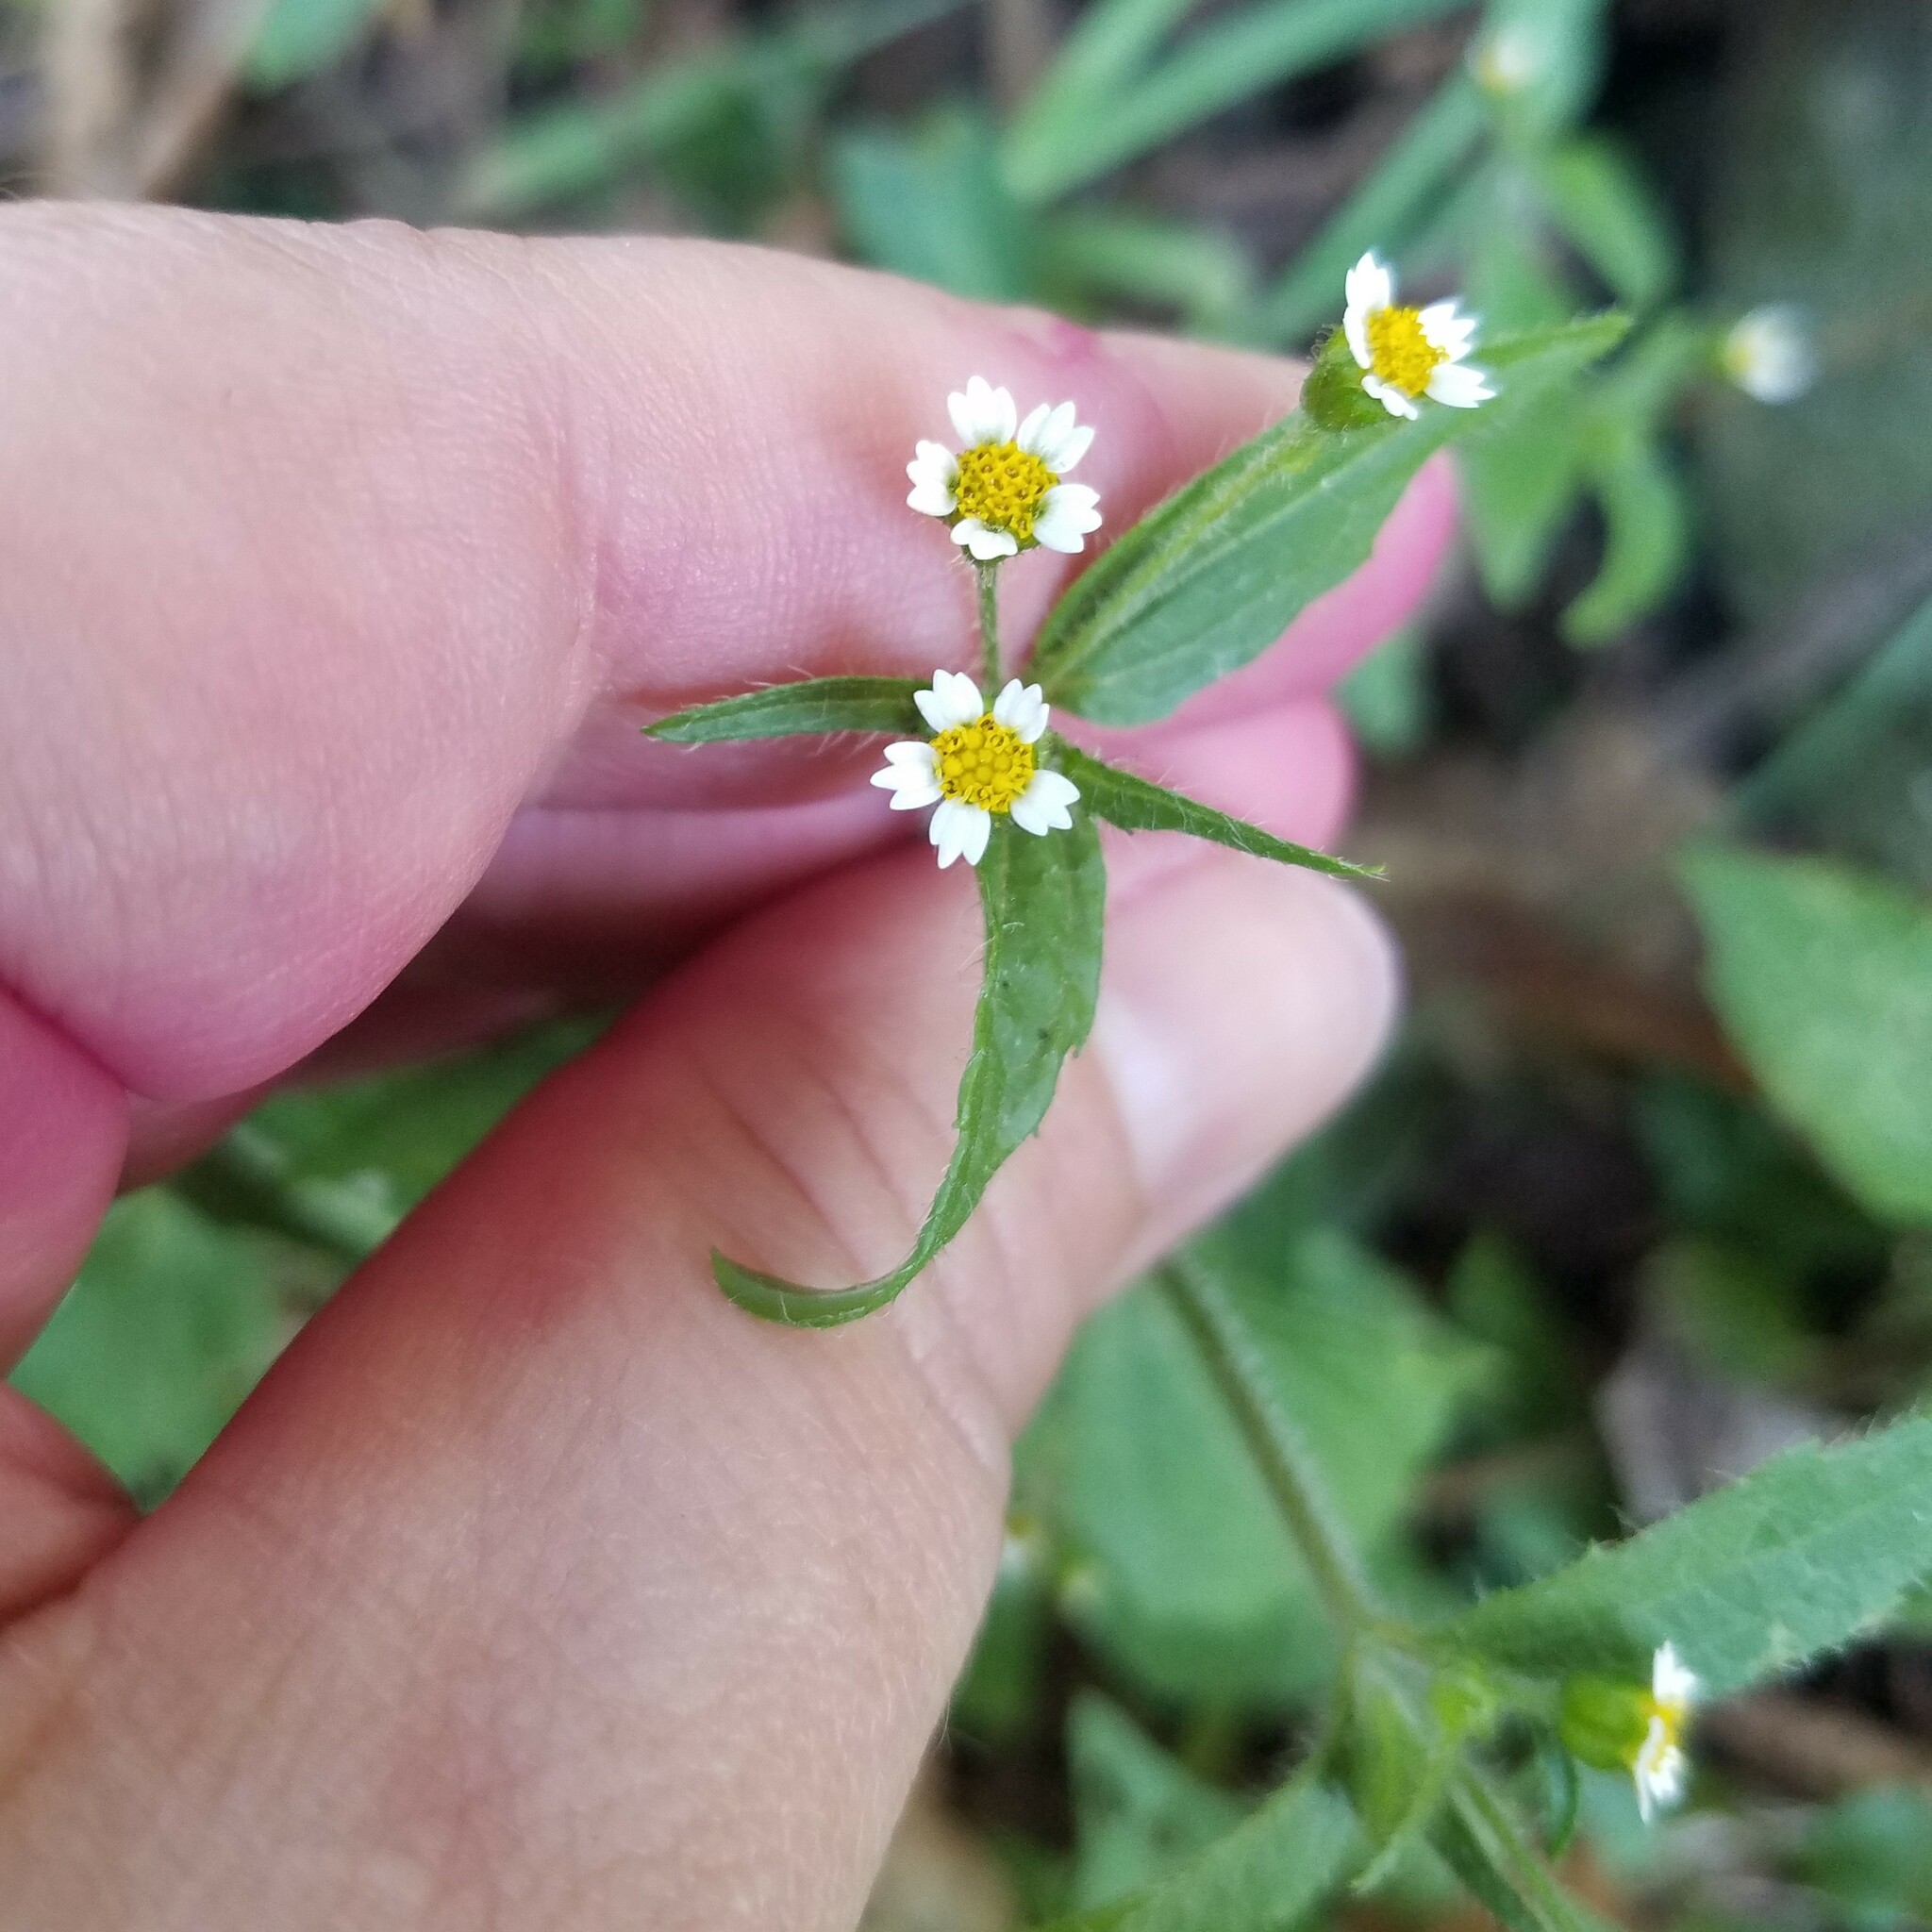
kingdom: Plantae
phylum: Tracheophyta
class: Magnoliopsida
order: Asterales
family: Asteraceae
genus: Galinsoga
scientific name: Galinsoga quadriradiata
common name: Shaggy soldier
